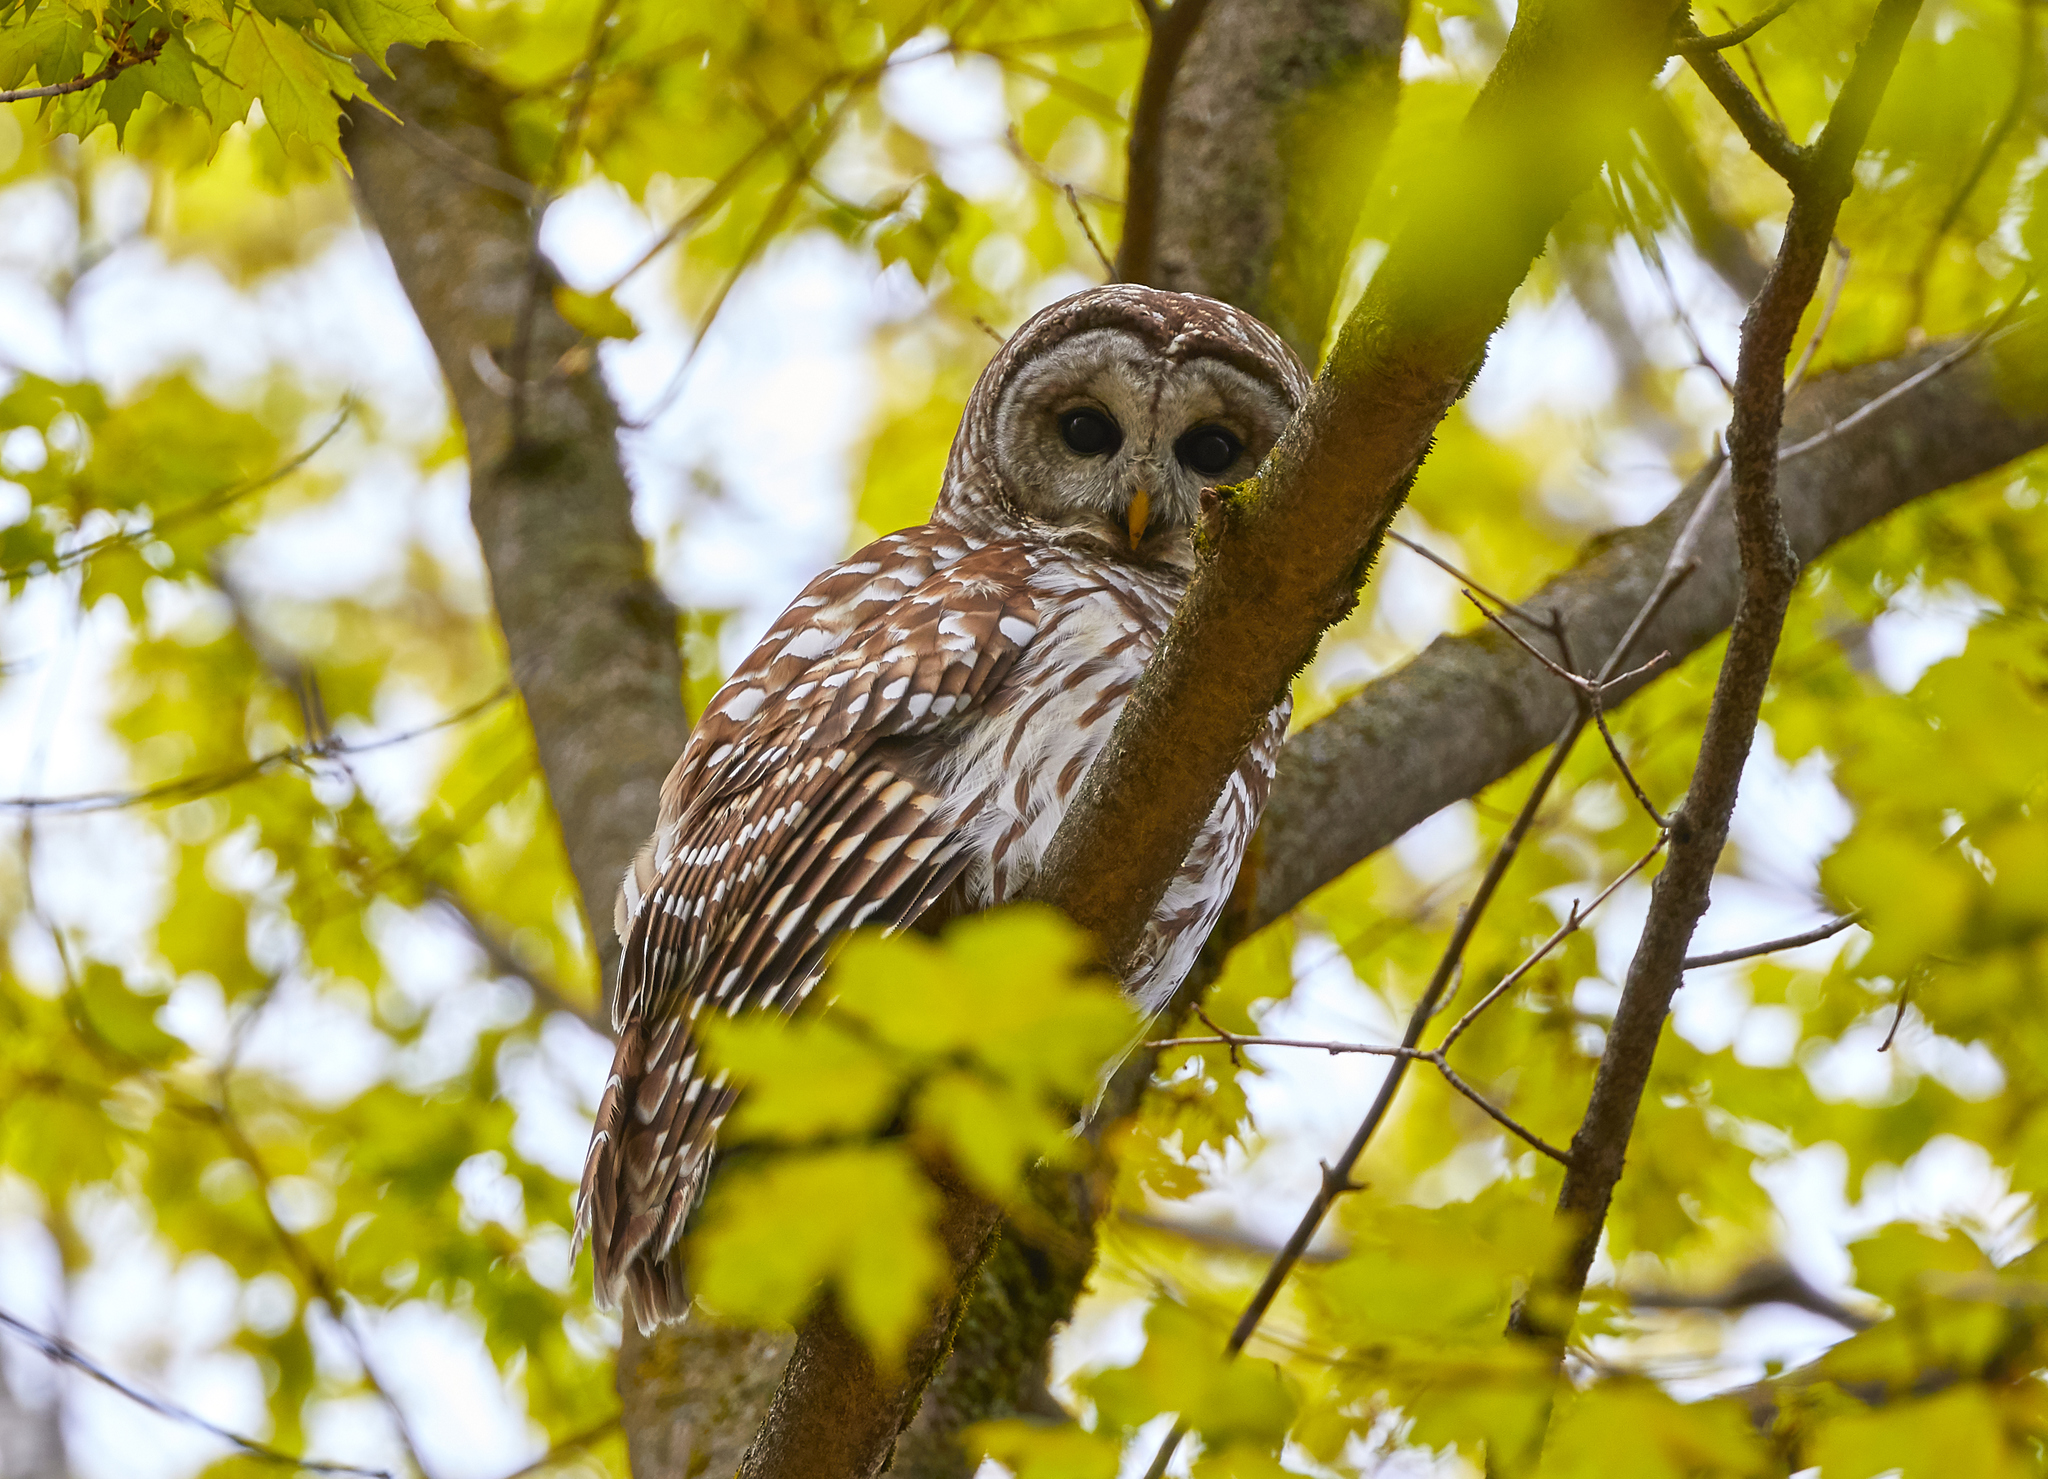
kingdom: Animalia
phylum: Chordata
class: Aves
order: Strigiformes
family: Strigidae
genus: Strix
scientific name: Strix varia
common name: Barred owl
